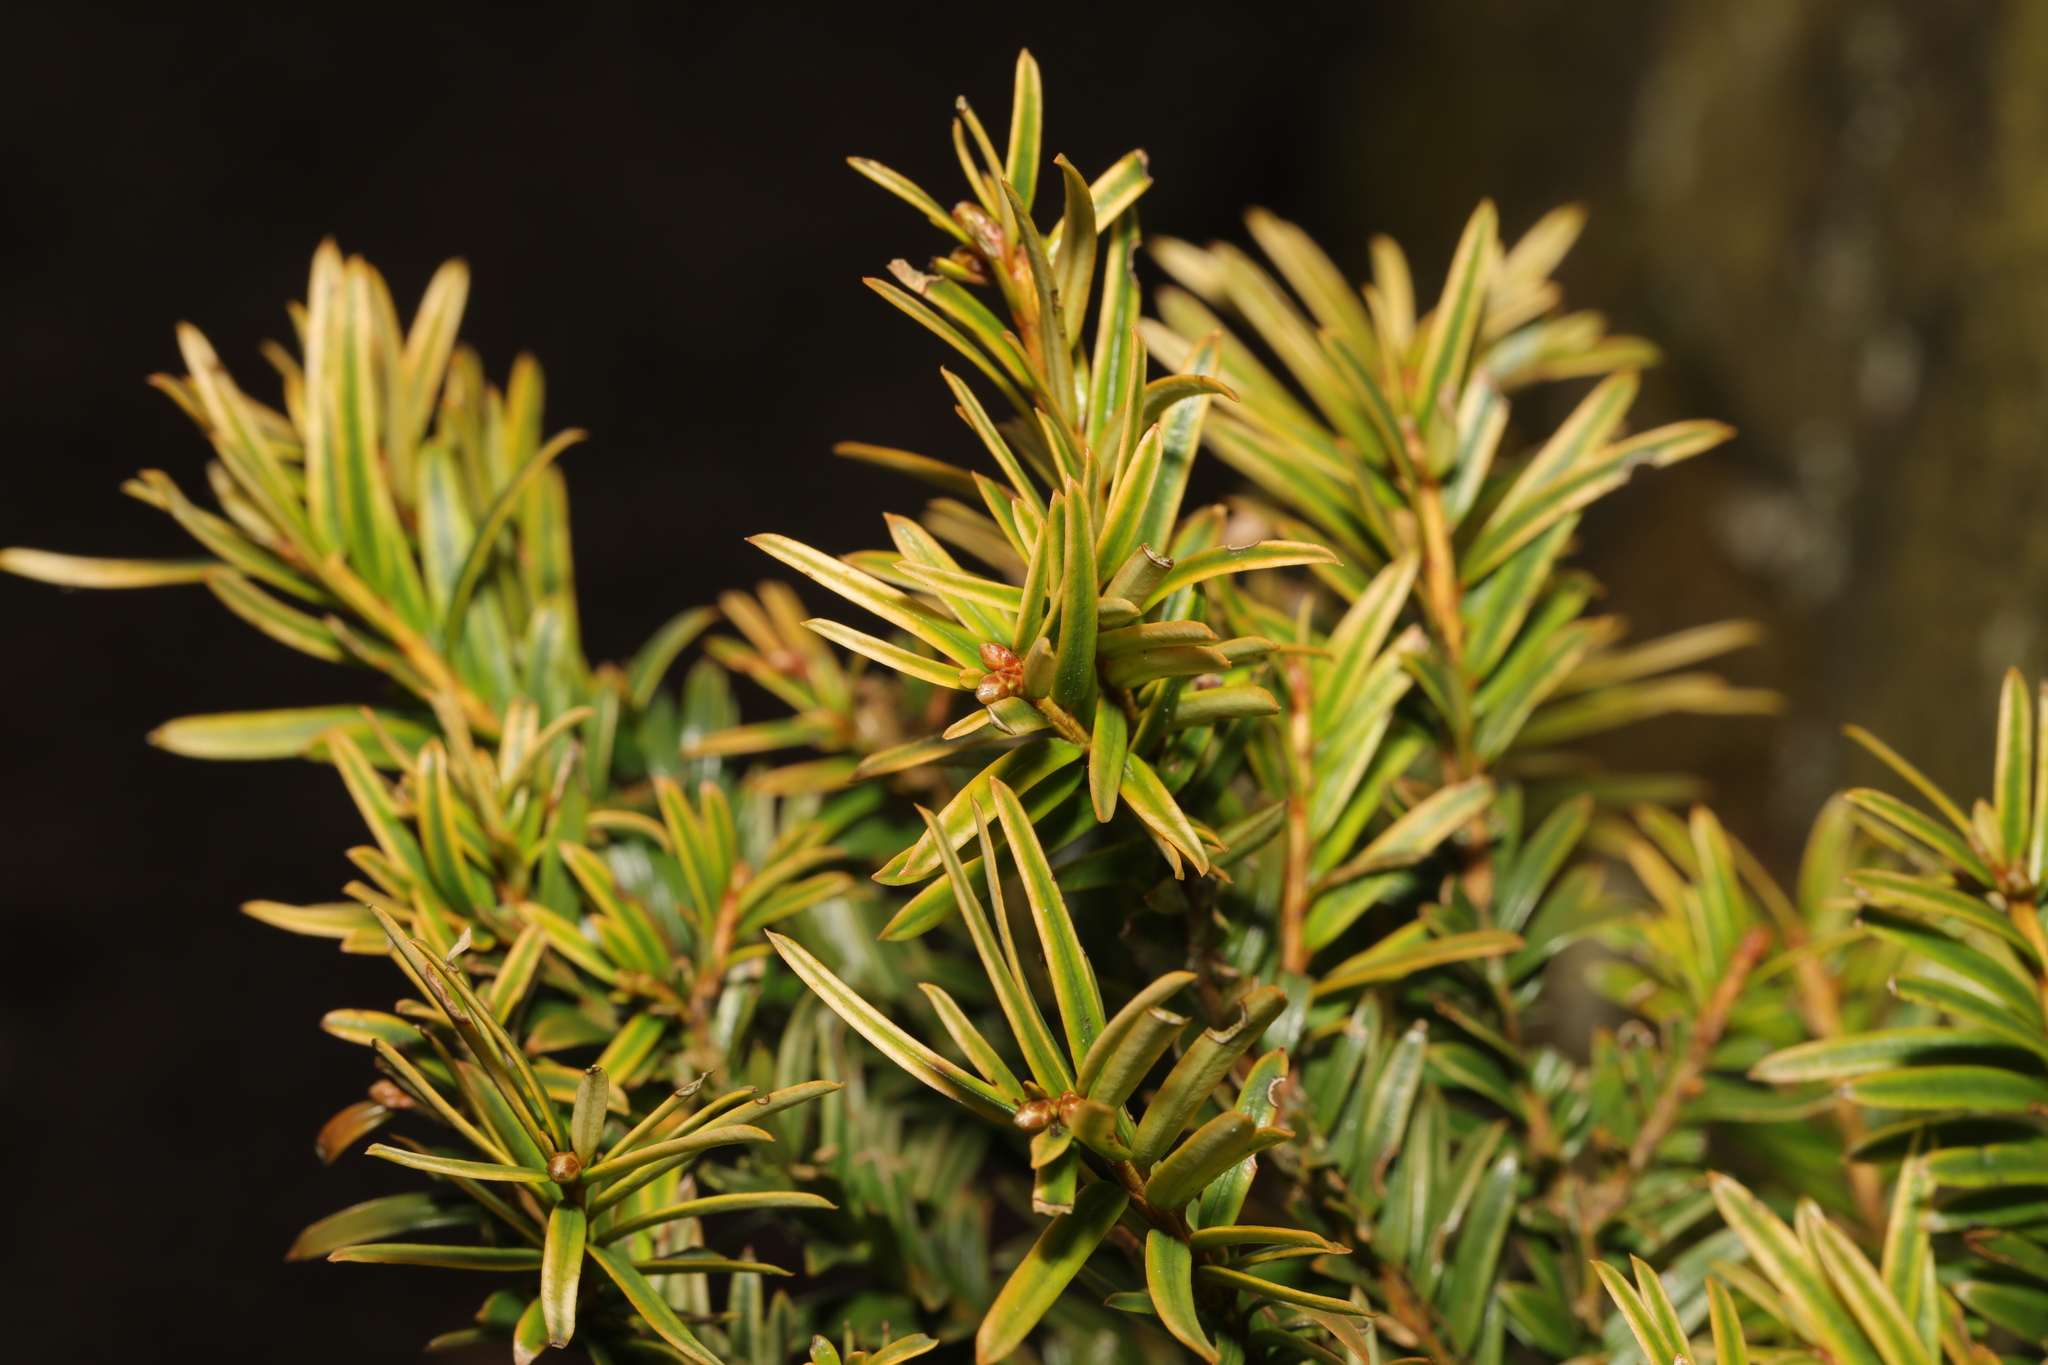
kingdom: Plantae
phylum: Tracheophyta
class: Pinopsida
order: Pinales
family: Taxaceae
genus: Taxus
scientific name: Taxus baccata
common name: Yew
